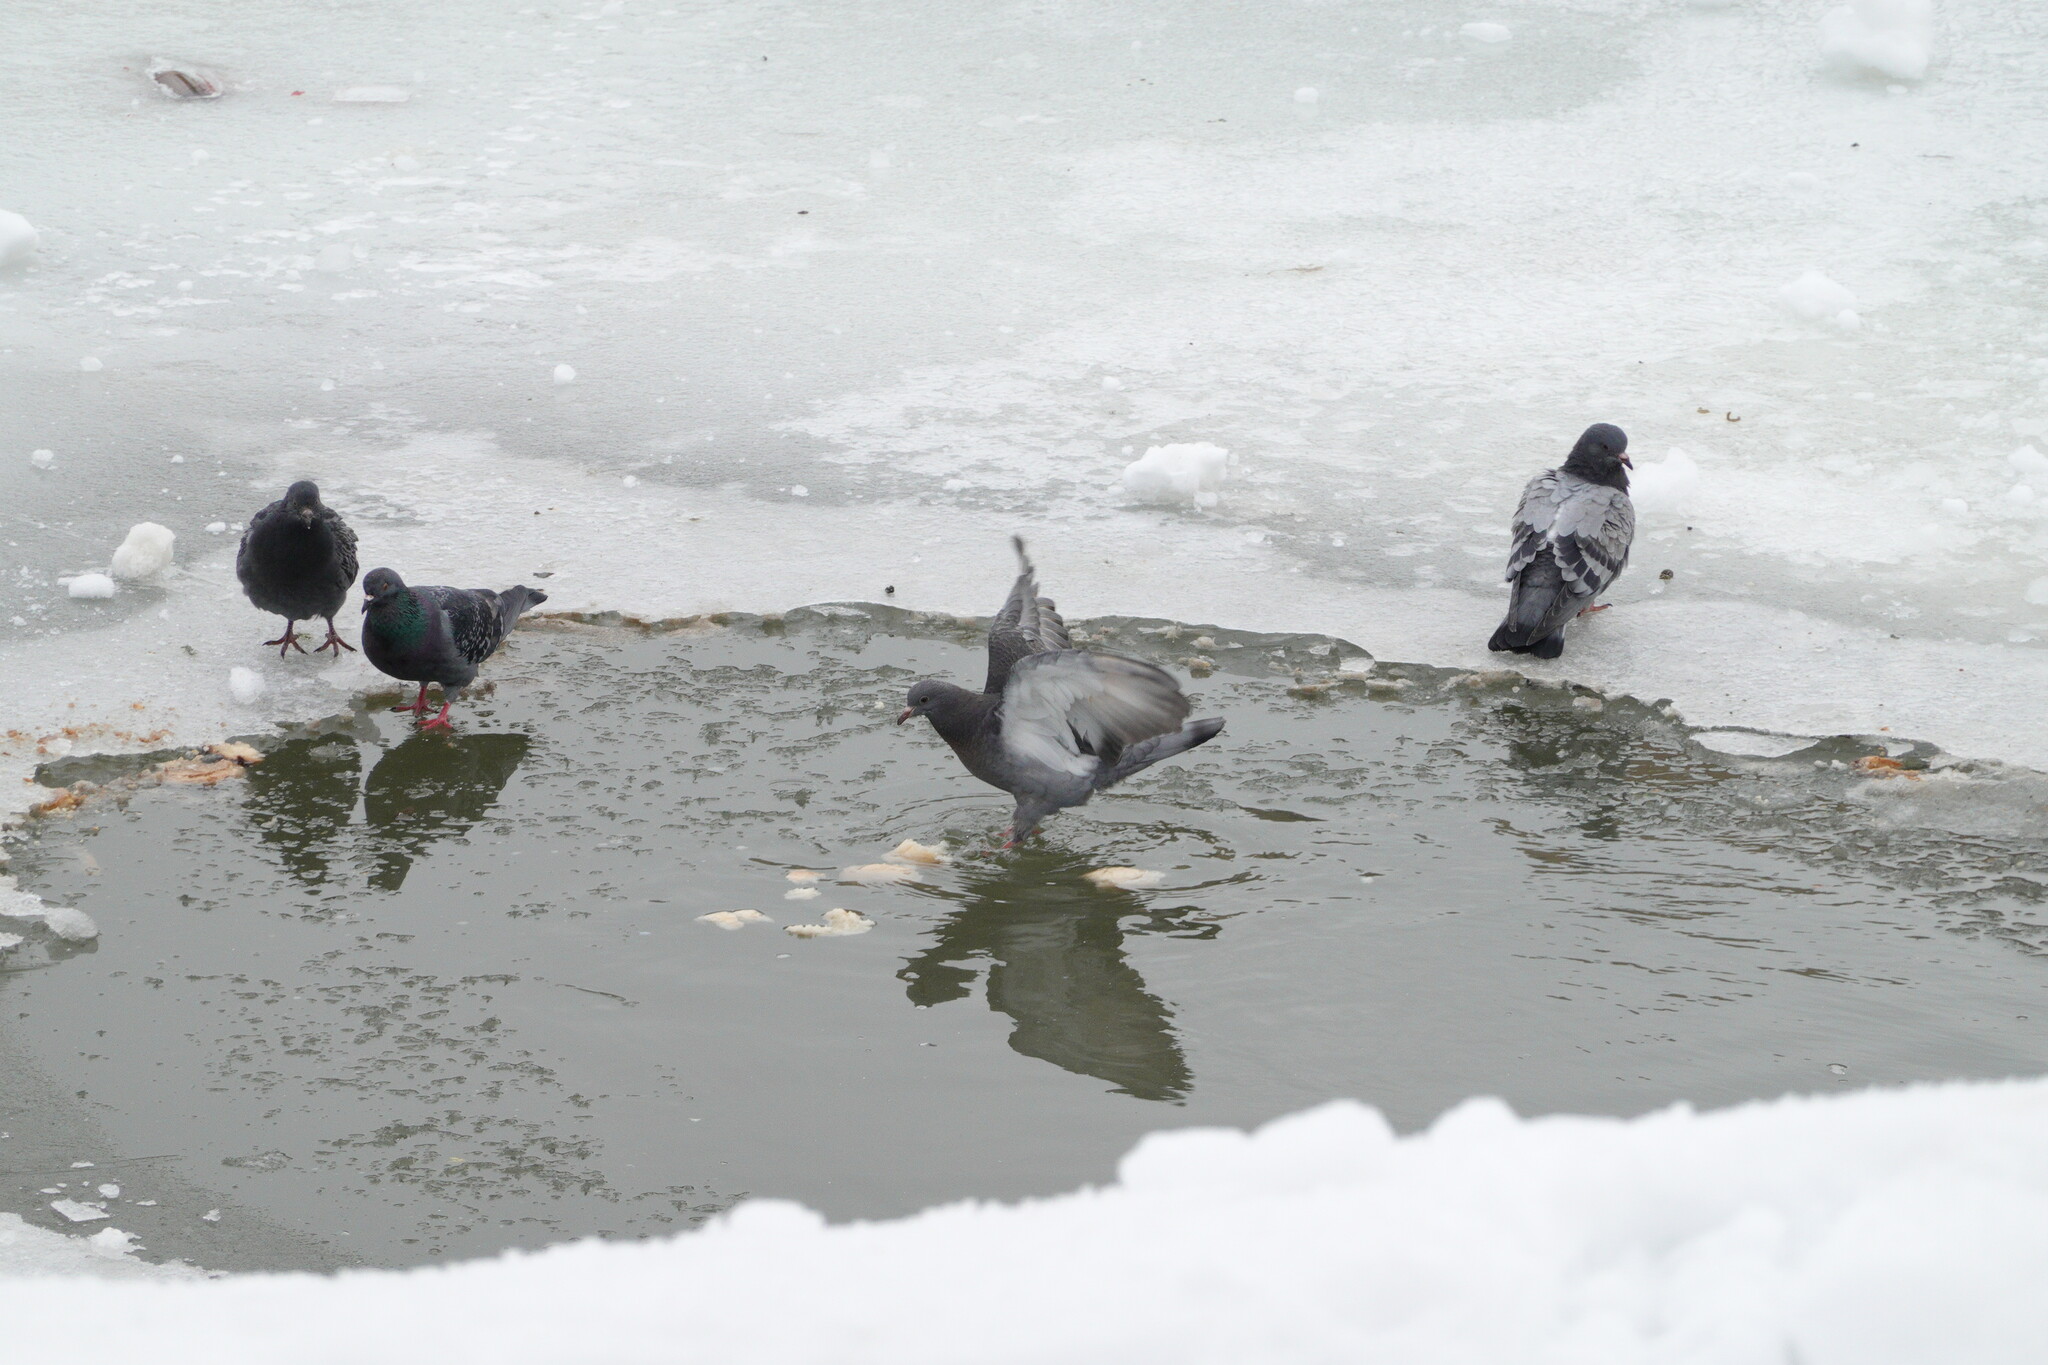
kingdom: Animalia
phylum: Chordata
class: Aves
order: Columbiformes
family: Columbidae
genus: Columba
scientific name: Columba livia
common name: Rock pigeon
